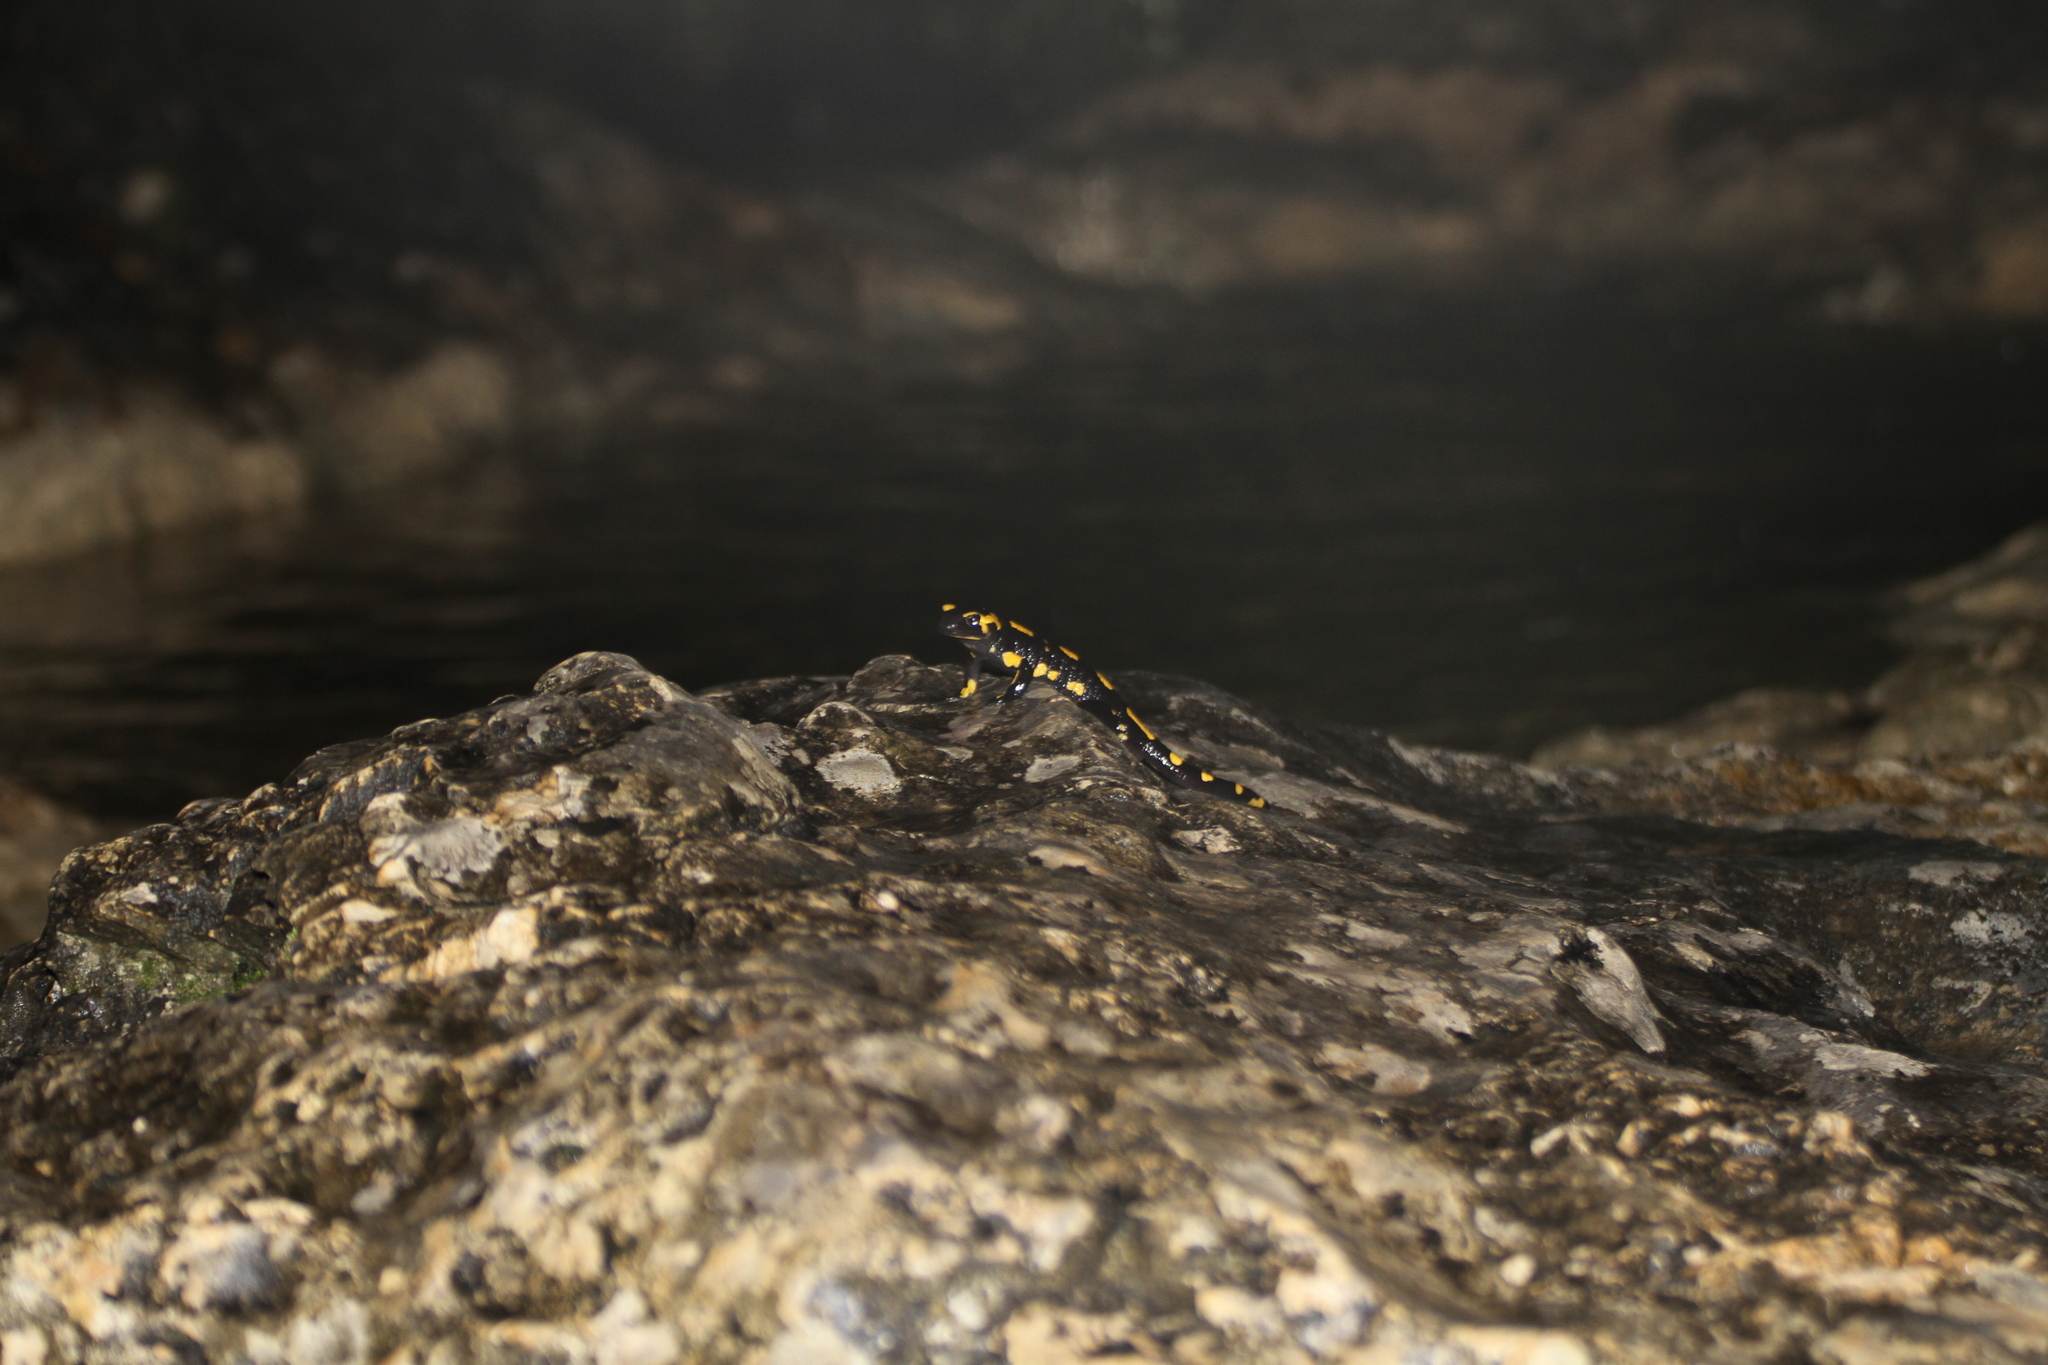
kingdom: Animalia
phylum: Chordata
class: Amphibia
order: Caudata
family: Salamandridae
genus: Salamandra
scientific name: Salamandra salamandra
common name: Fire salamander
